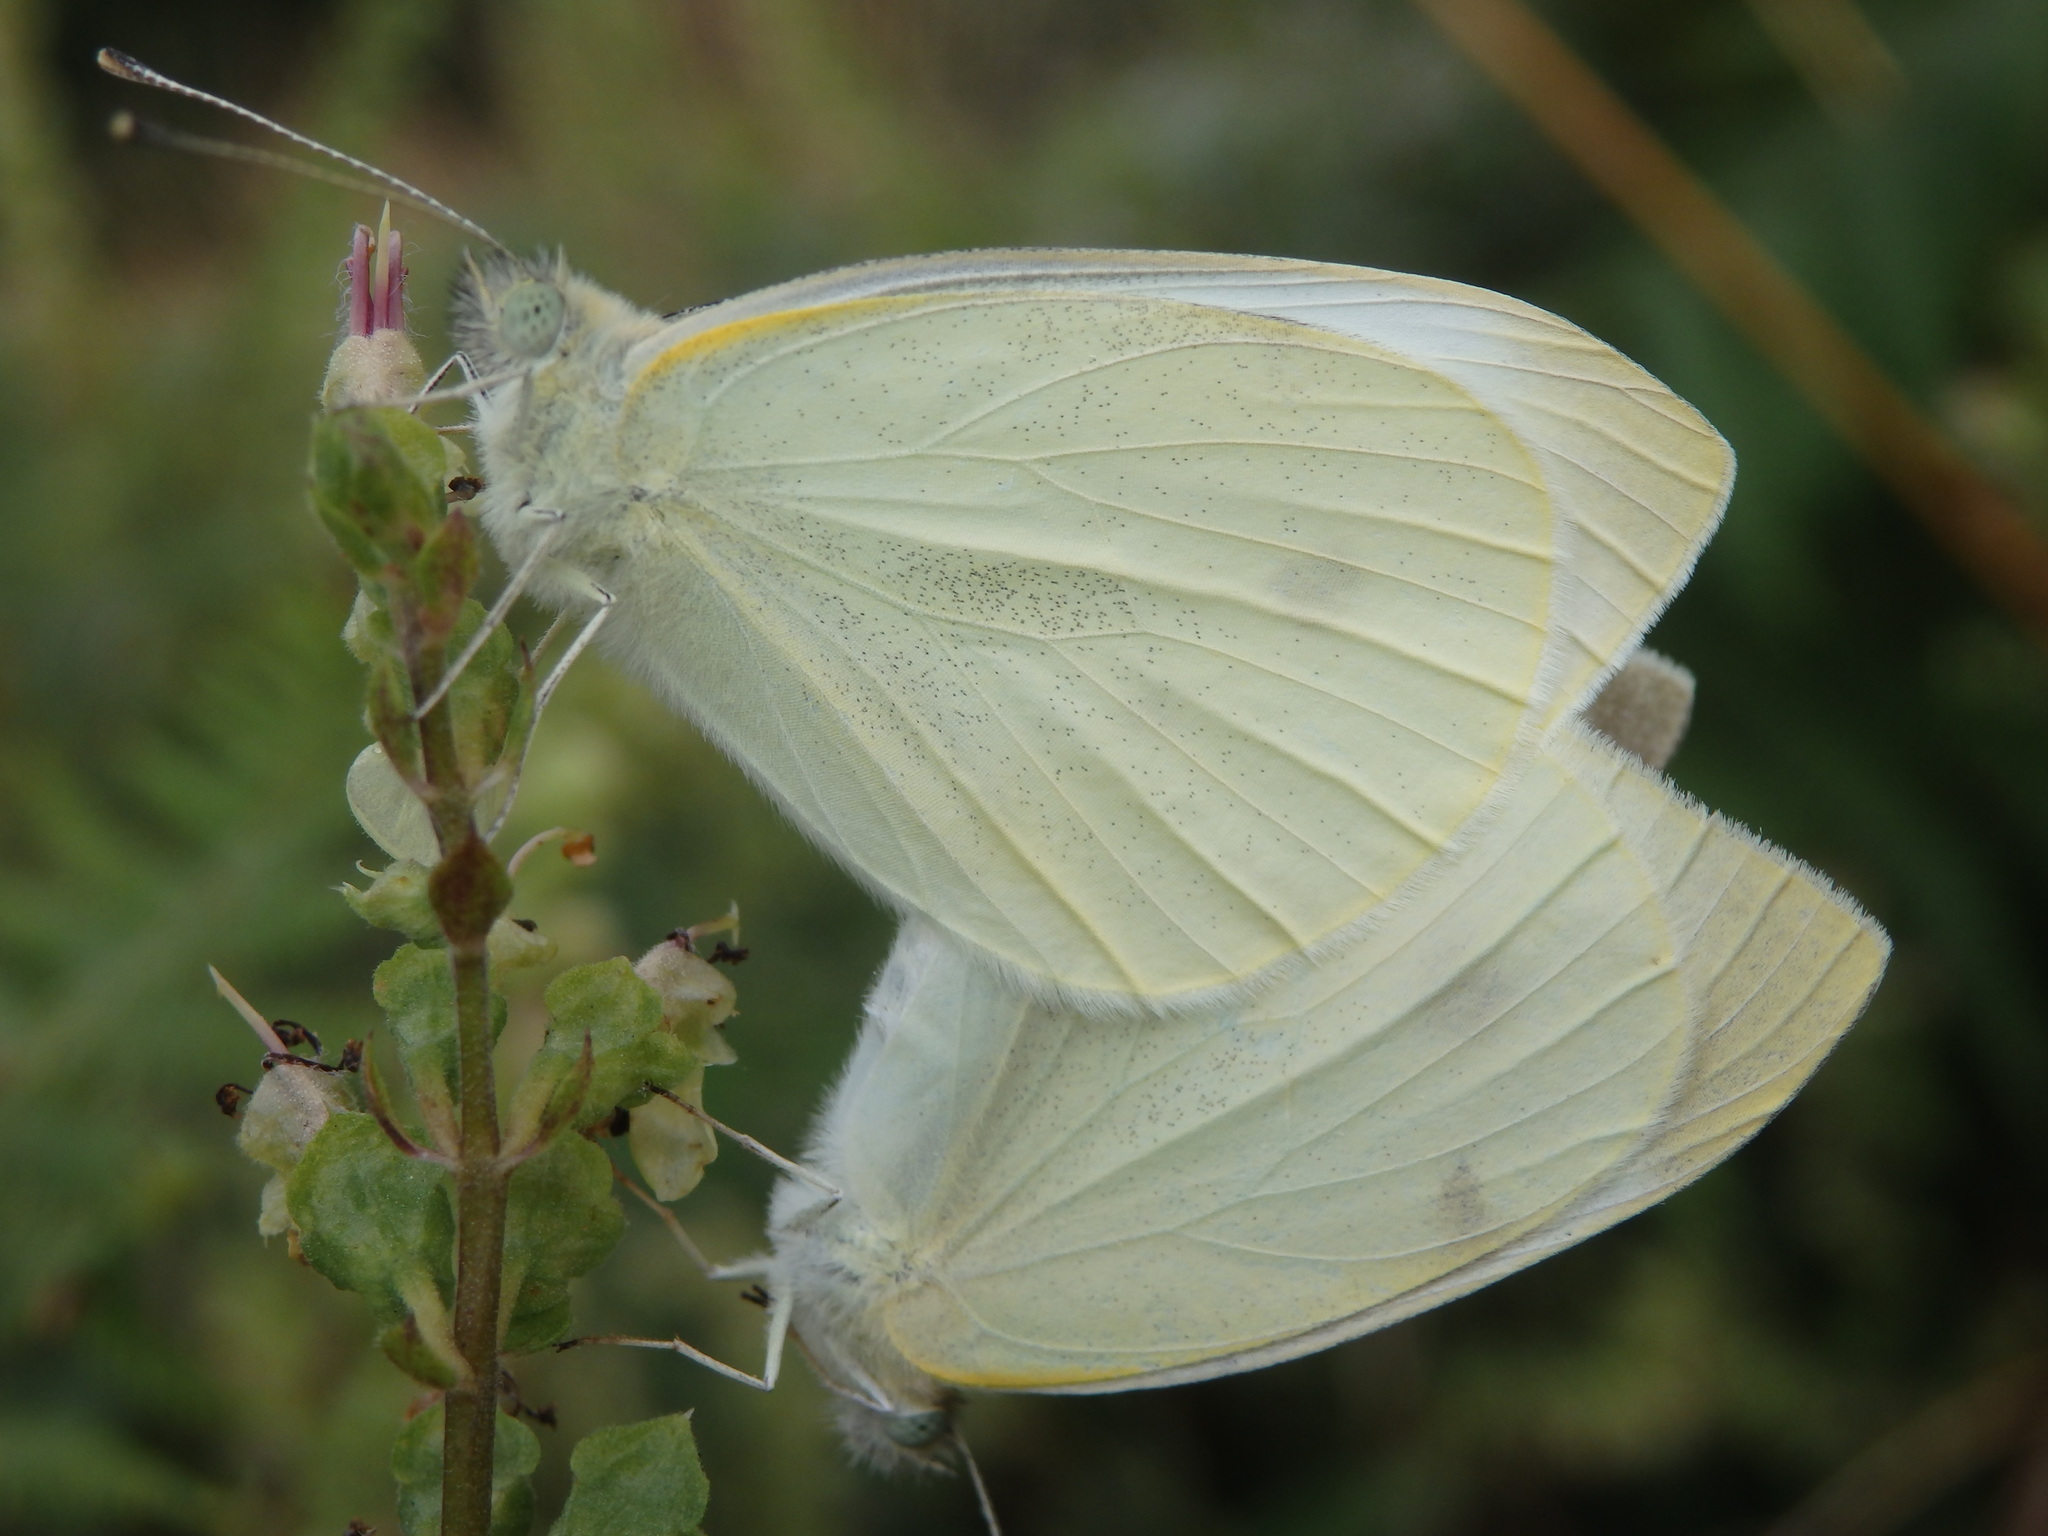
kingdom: Animalia
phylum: Arthropoda
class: Insecta
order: Lepidoptera
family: Pieridae
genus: Pieris
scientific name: Pieris rapae
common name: Small white
